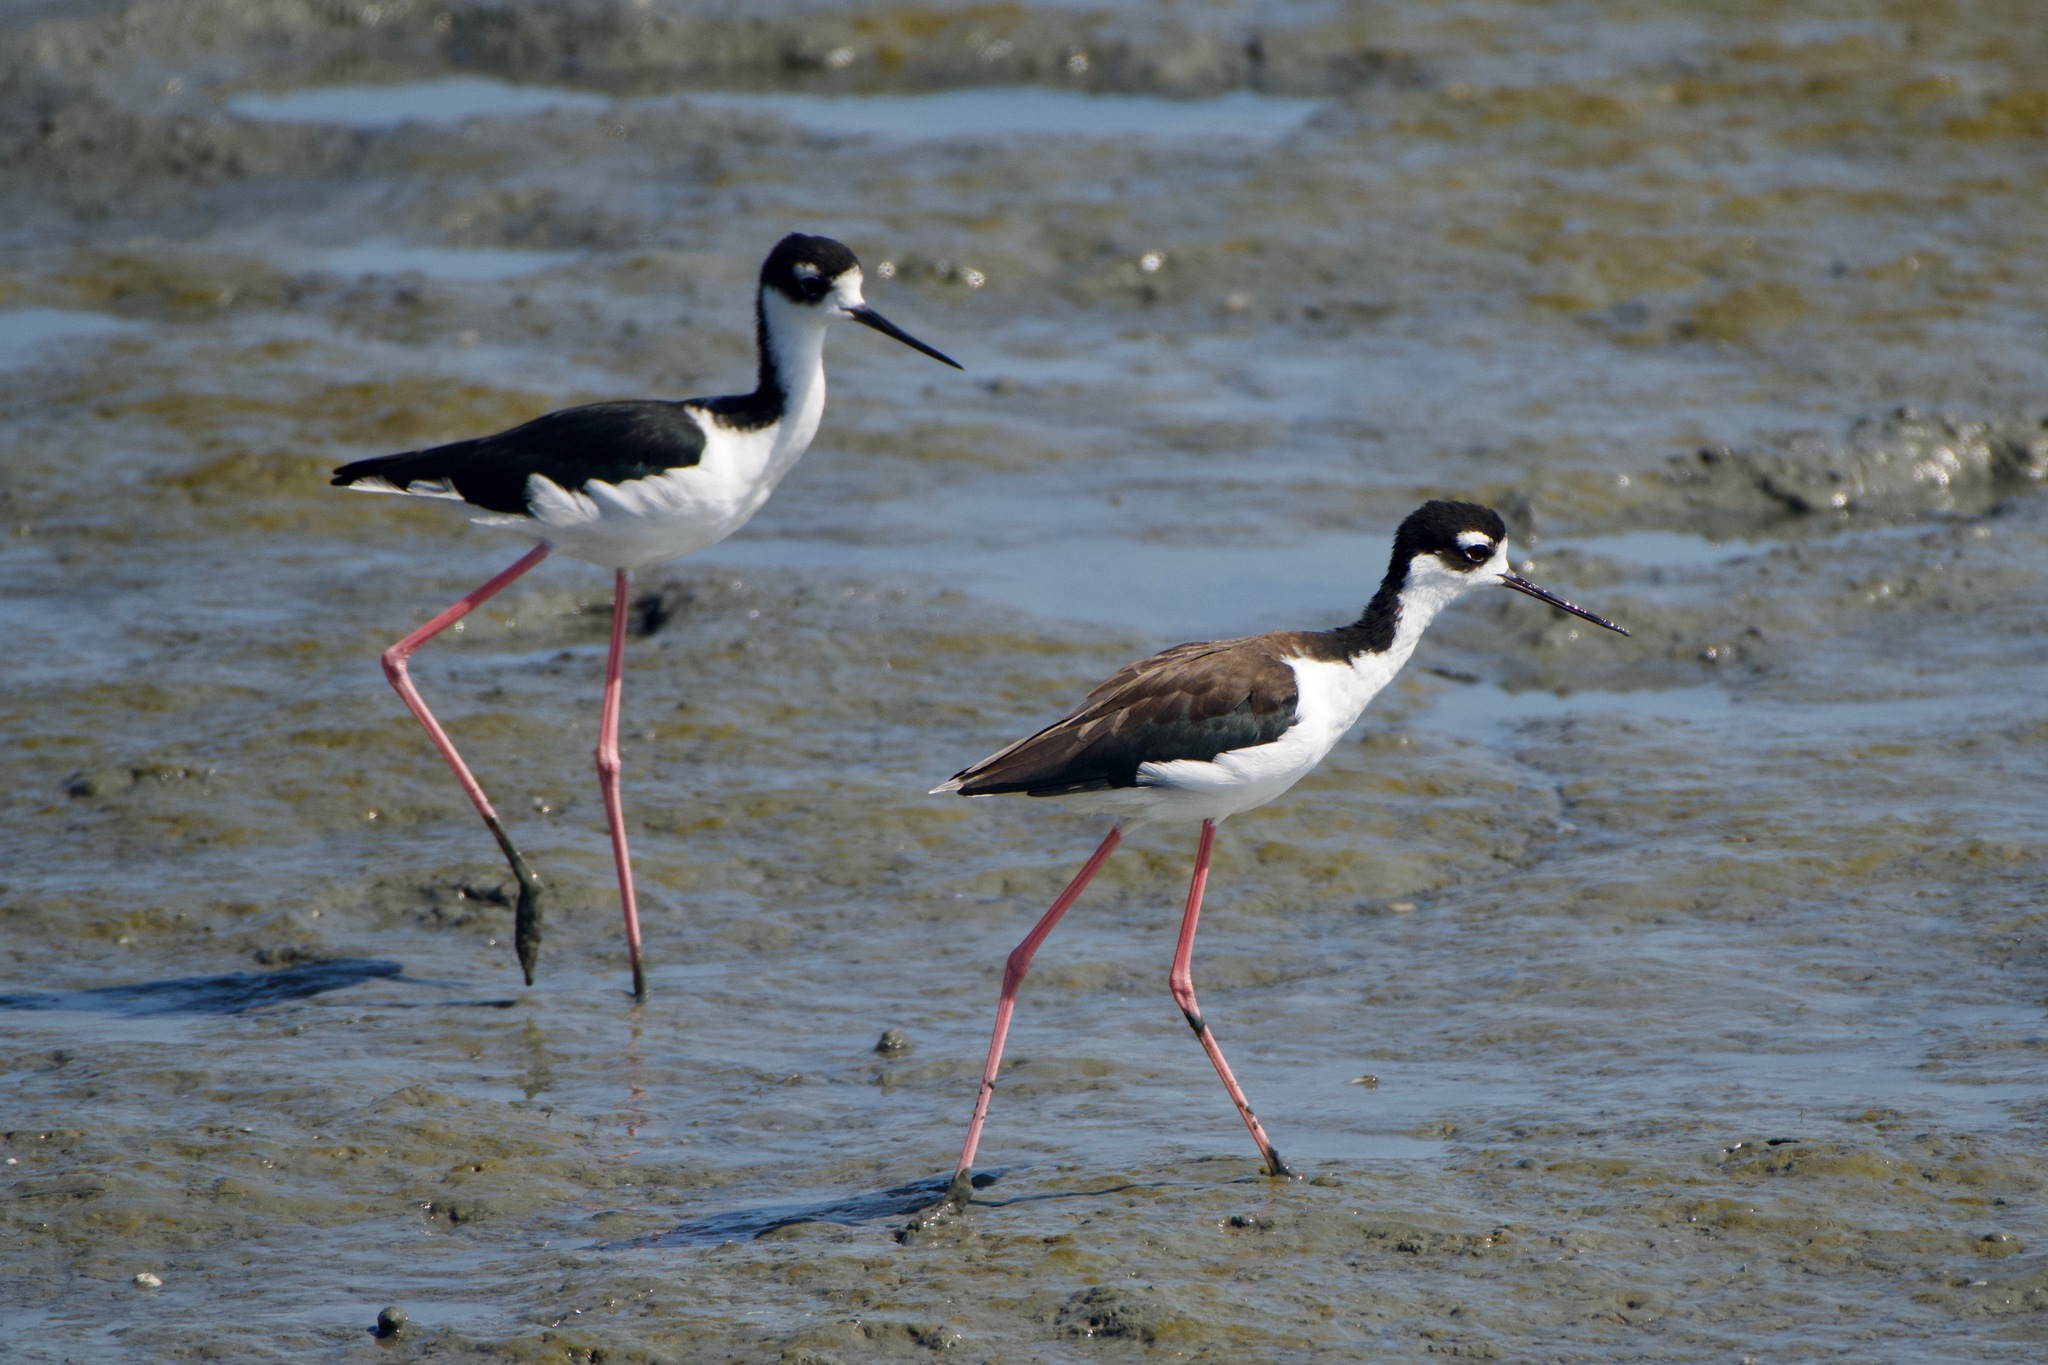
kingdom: Animalia
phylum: Chordata
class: Aves
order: Charadriiformes
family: Recurvirostridae
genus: Himantopus
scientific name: Himantopus mexicanus
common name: Black-necked stilt
